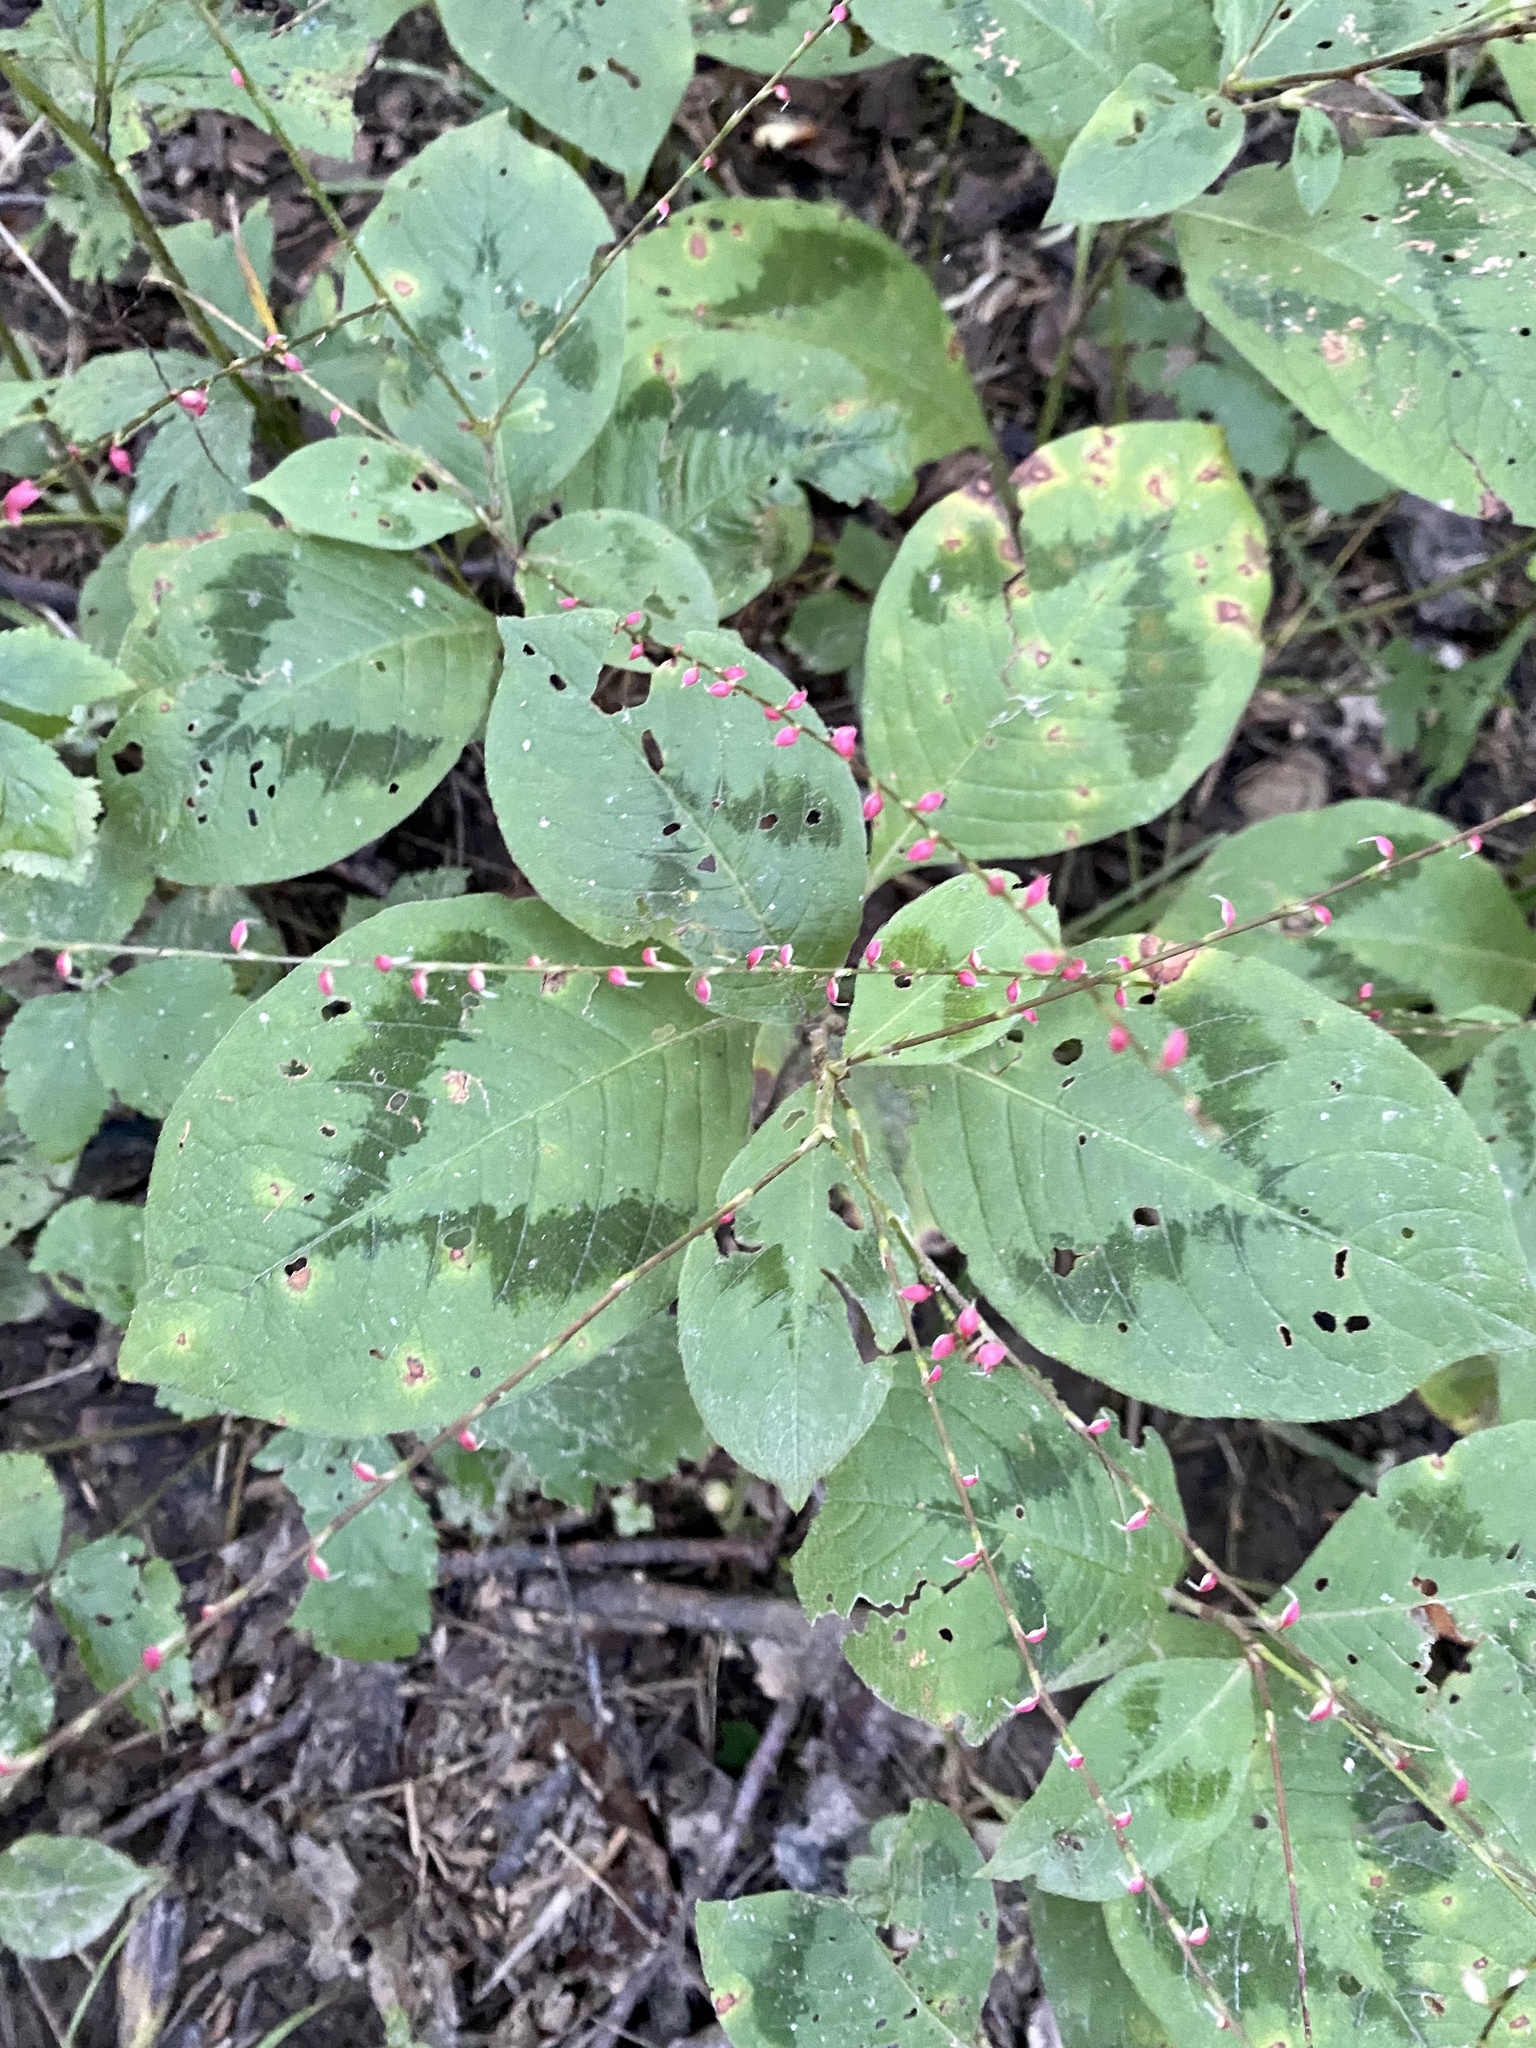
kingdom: Plantae
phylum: Tracheophyta
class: Magnoliopsida
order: Caryophyllales
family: Polygonaceae
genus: Persicaria
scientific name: Persicaria filiformis
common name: Asian jumpseed
